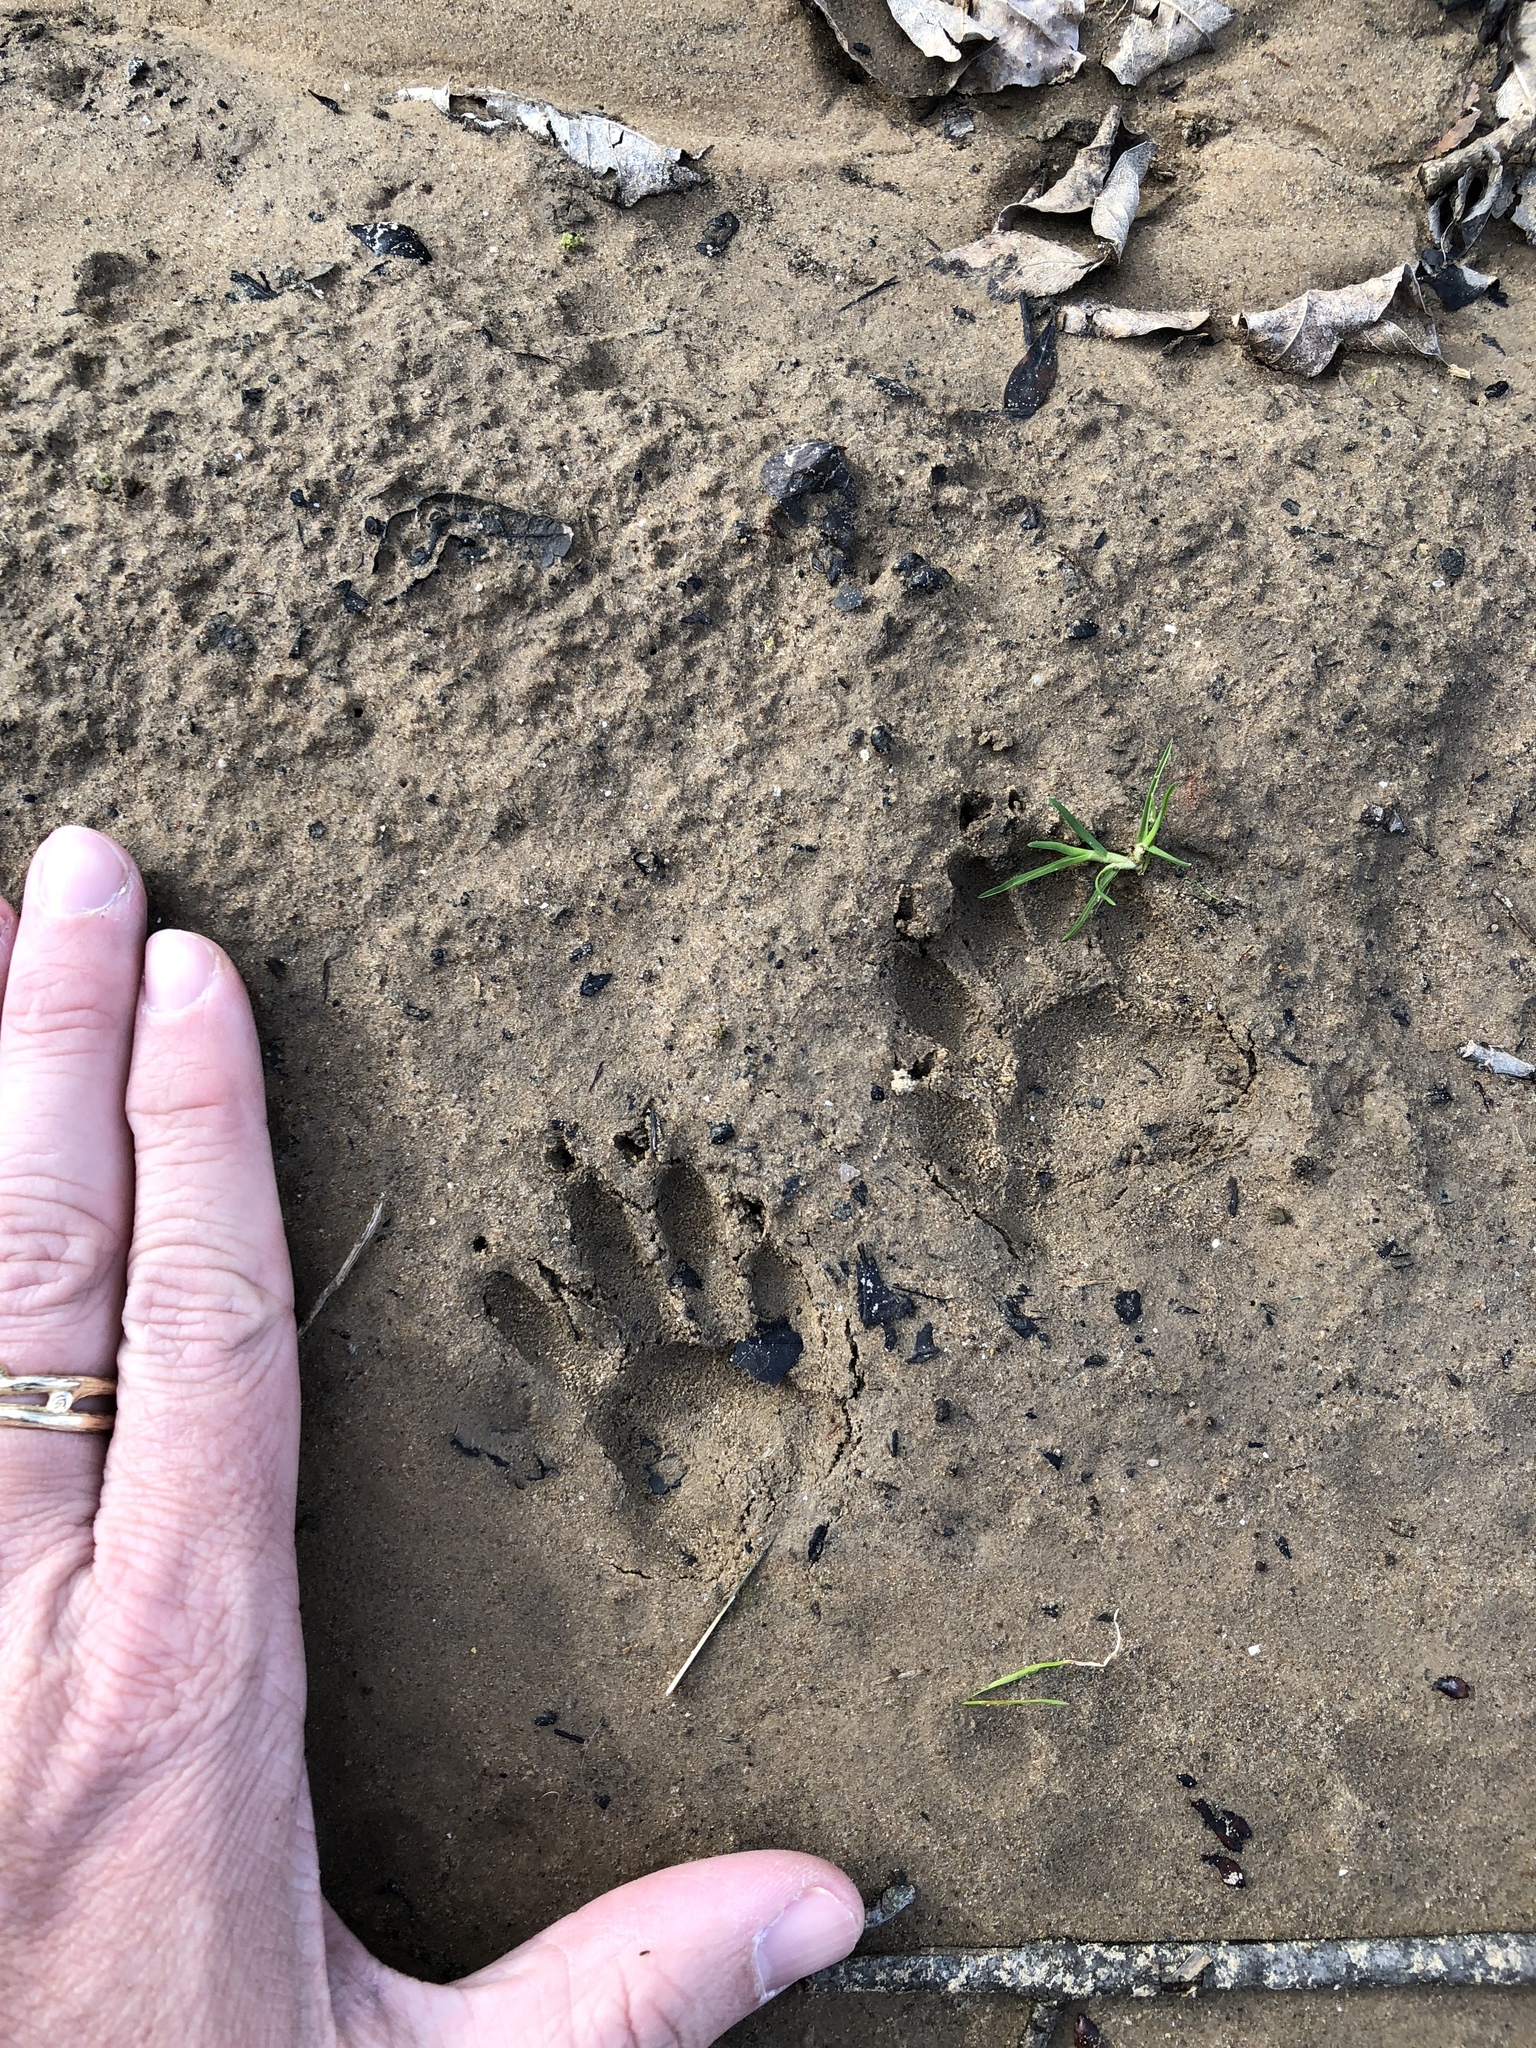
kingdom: Animalia
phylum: Chordata
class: Mammalia
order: Carnivora
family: Procyonidae
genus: Procyon
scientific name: Procyon lotor
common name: Raccoon
